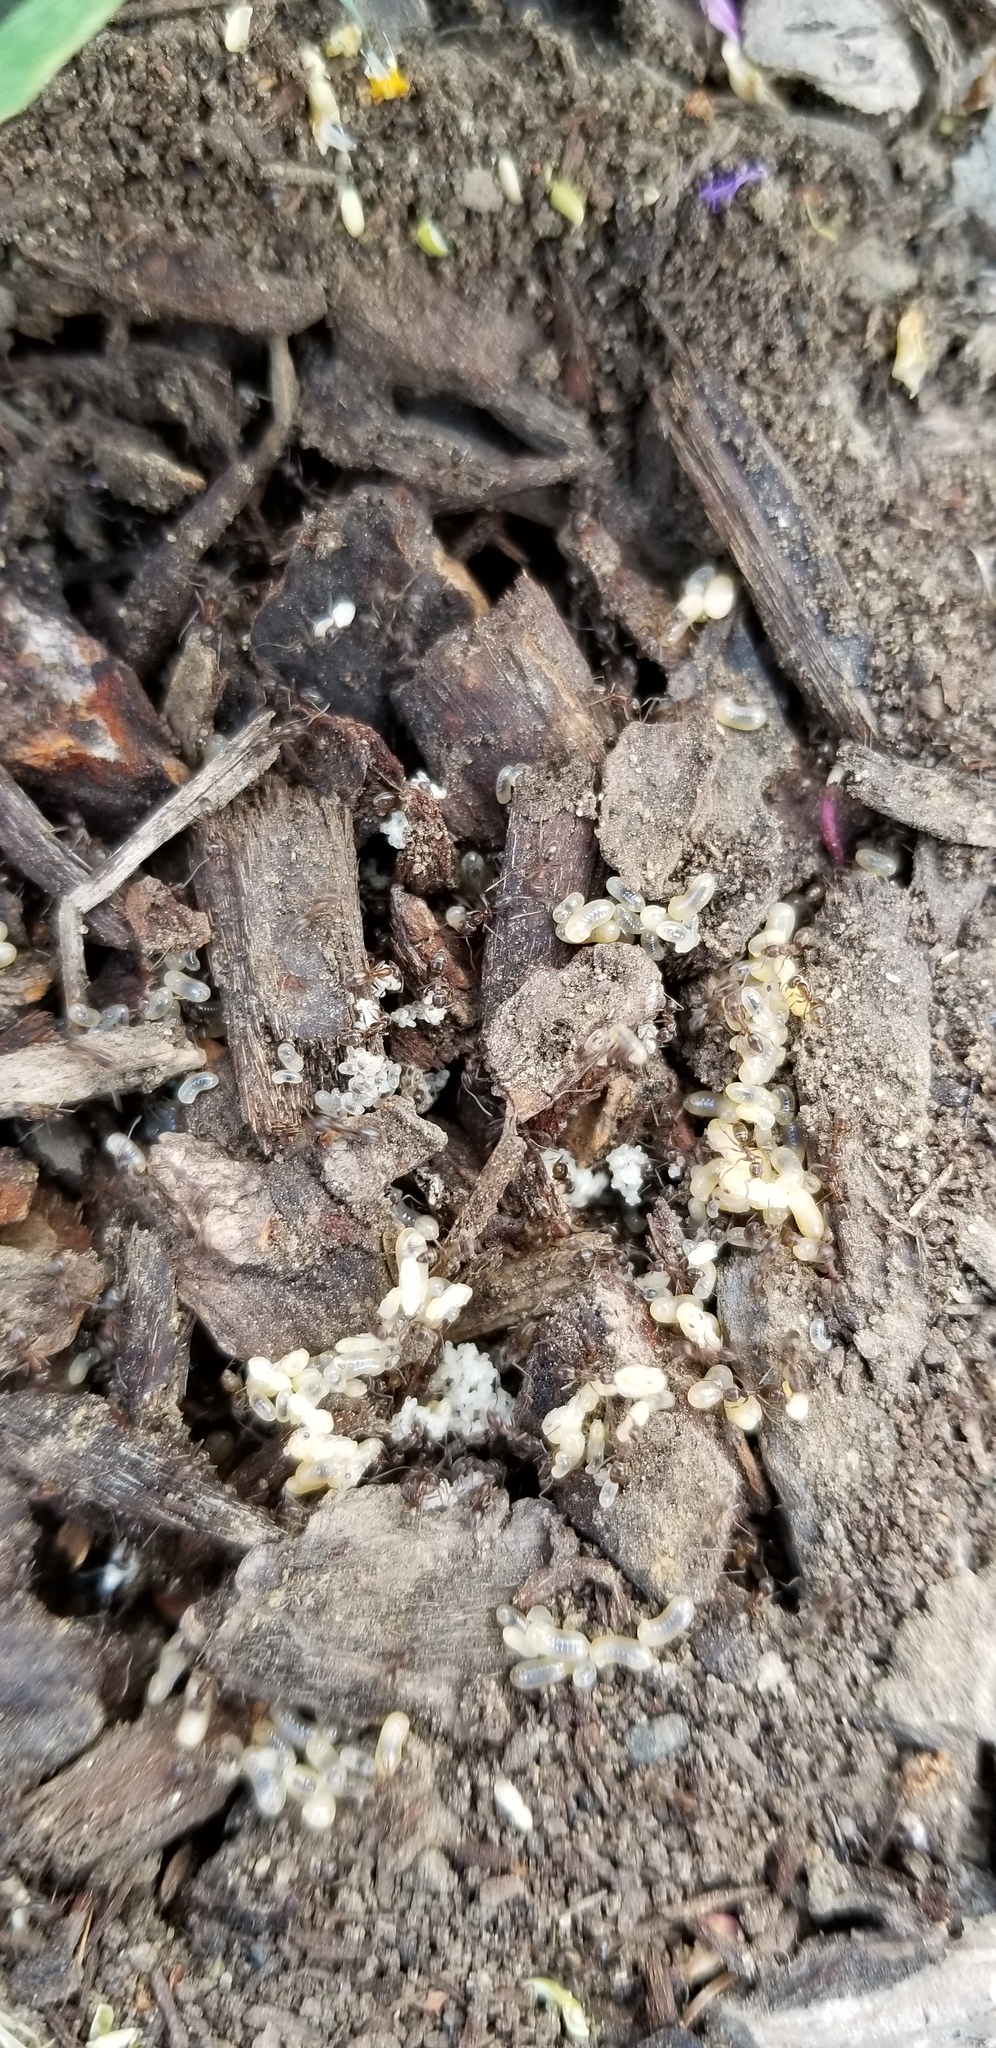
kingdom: Animalia
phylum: Arthropoda
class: Insecta
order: Hymenoptera
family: Formicidae
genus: Linepithema
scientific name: Linepithema humile
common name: Argentine ant
